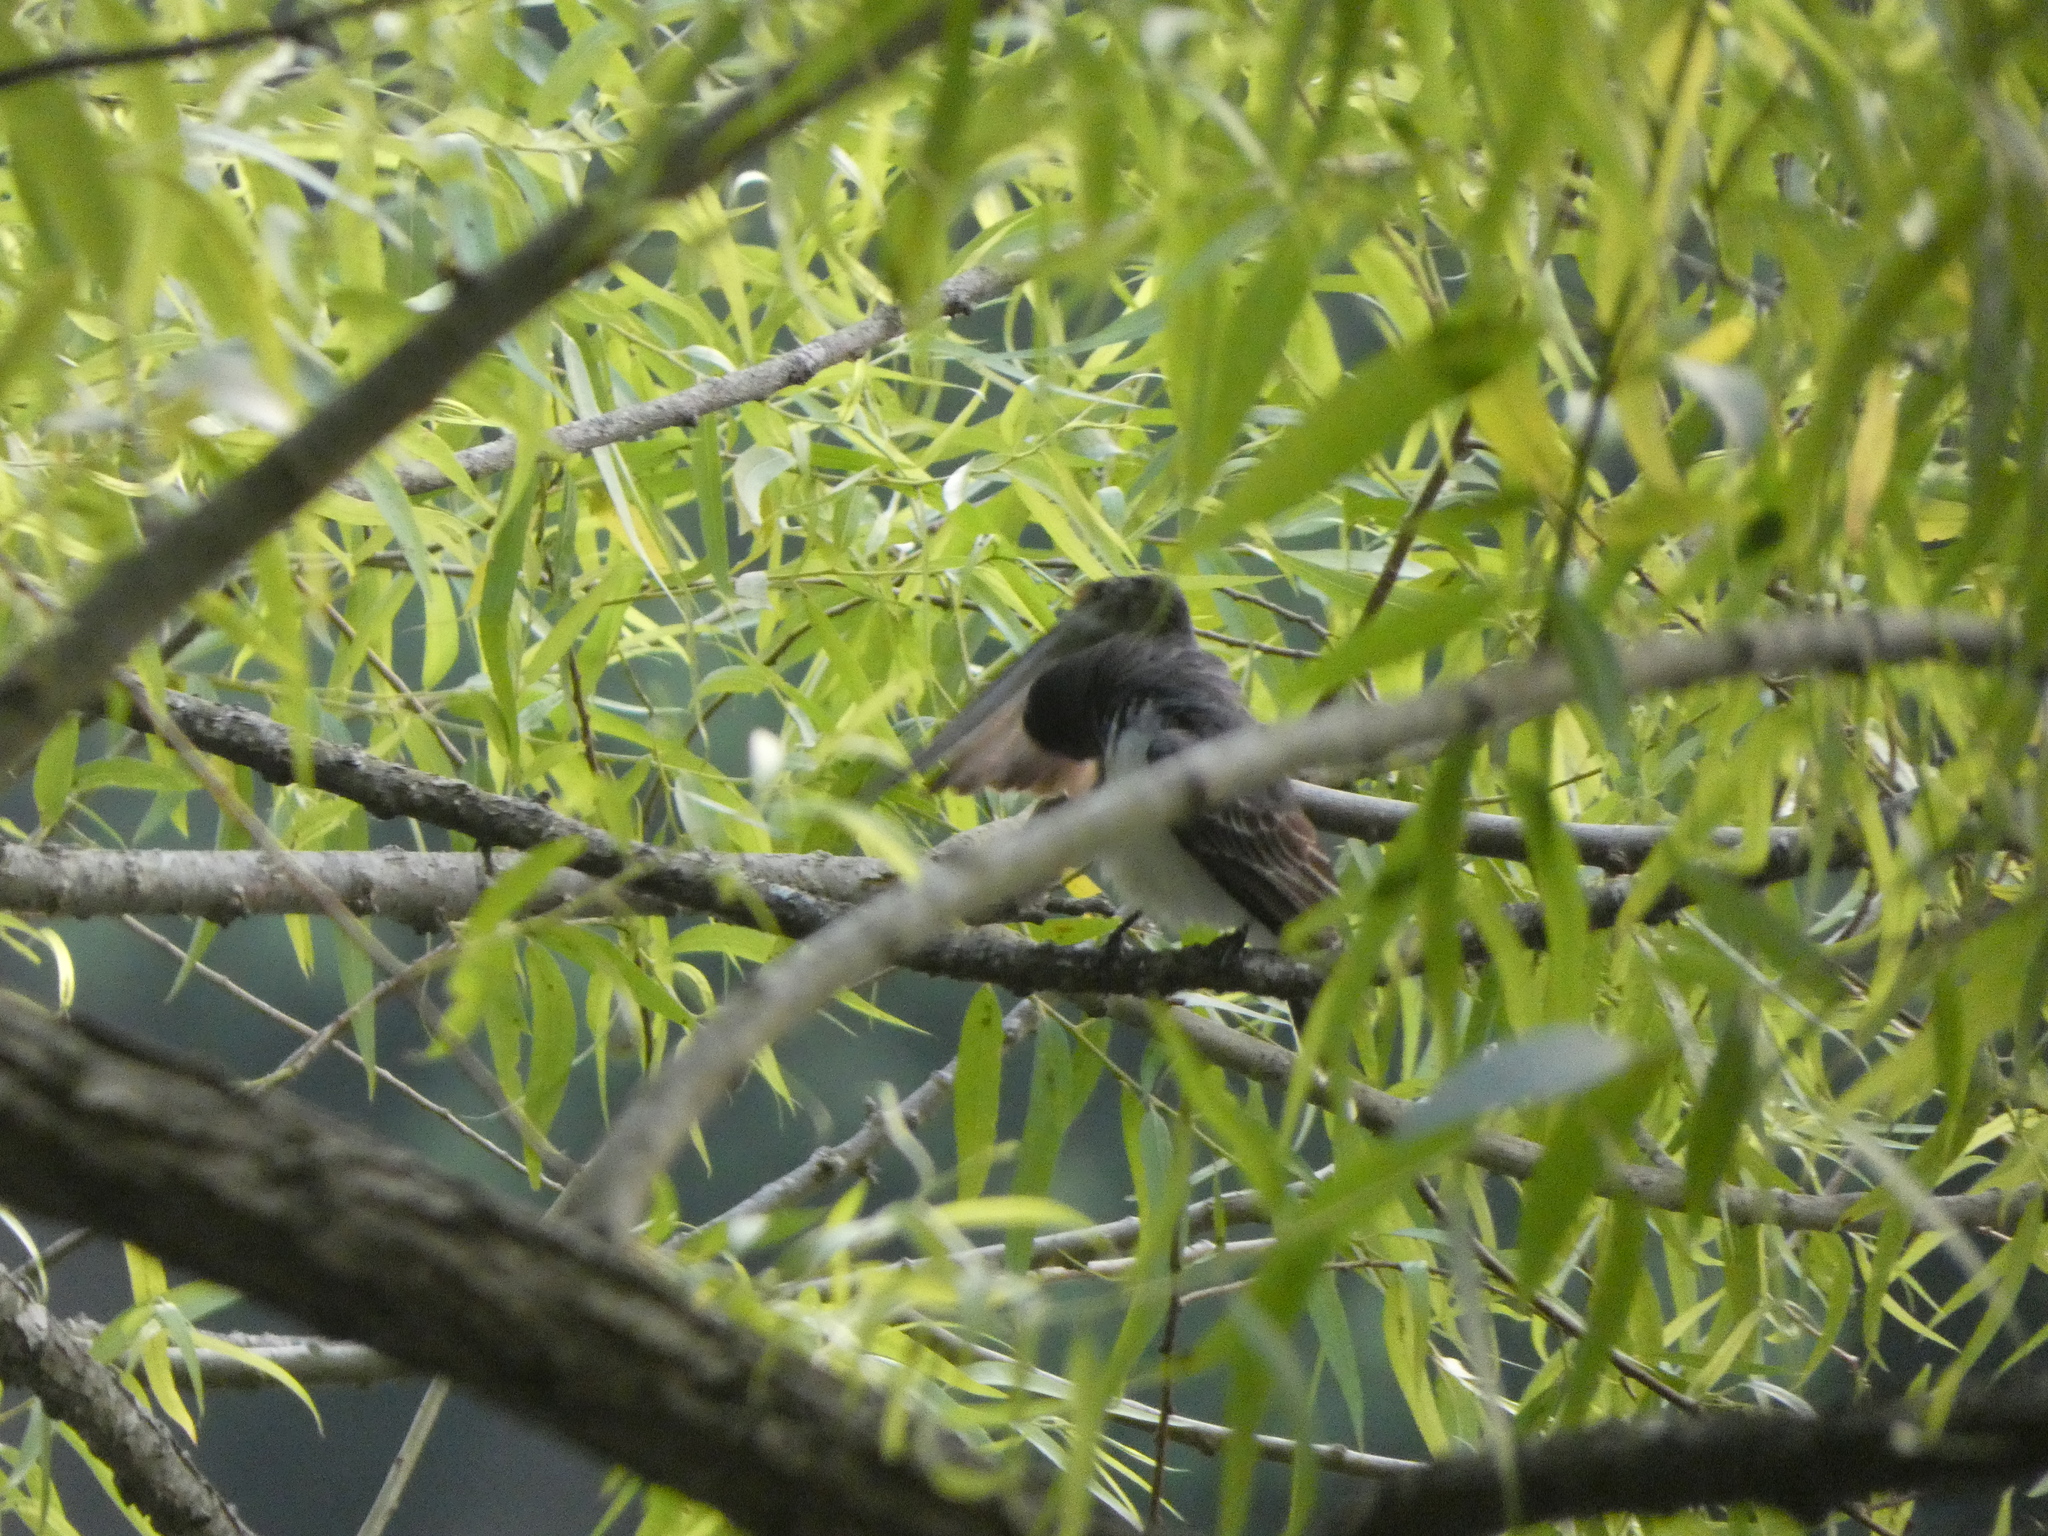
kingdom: Animalia
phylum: Chordata
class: Aves
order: Passeriformes
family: Tyrannidae
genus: Tyrannus
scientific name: Tyrannus tyrannus
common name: Eastern kingbird
